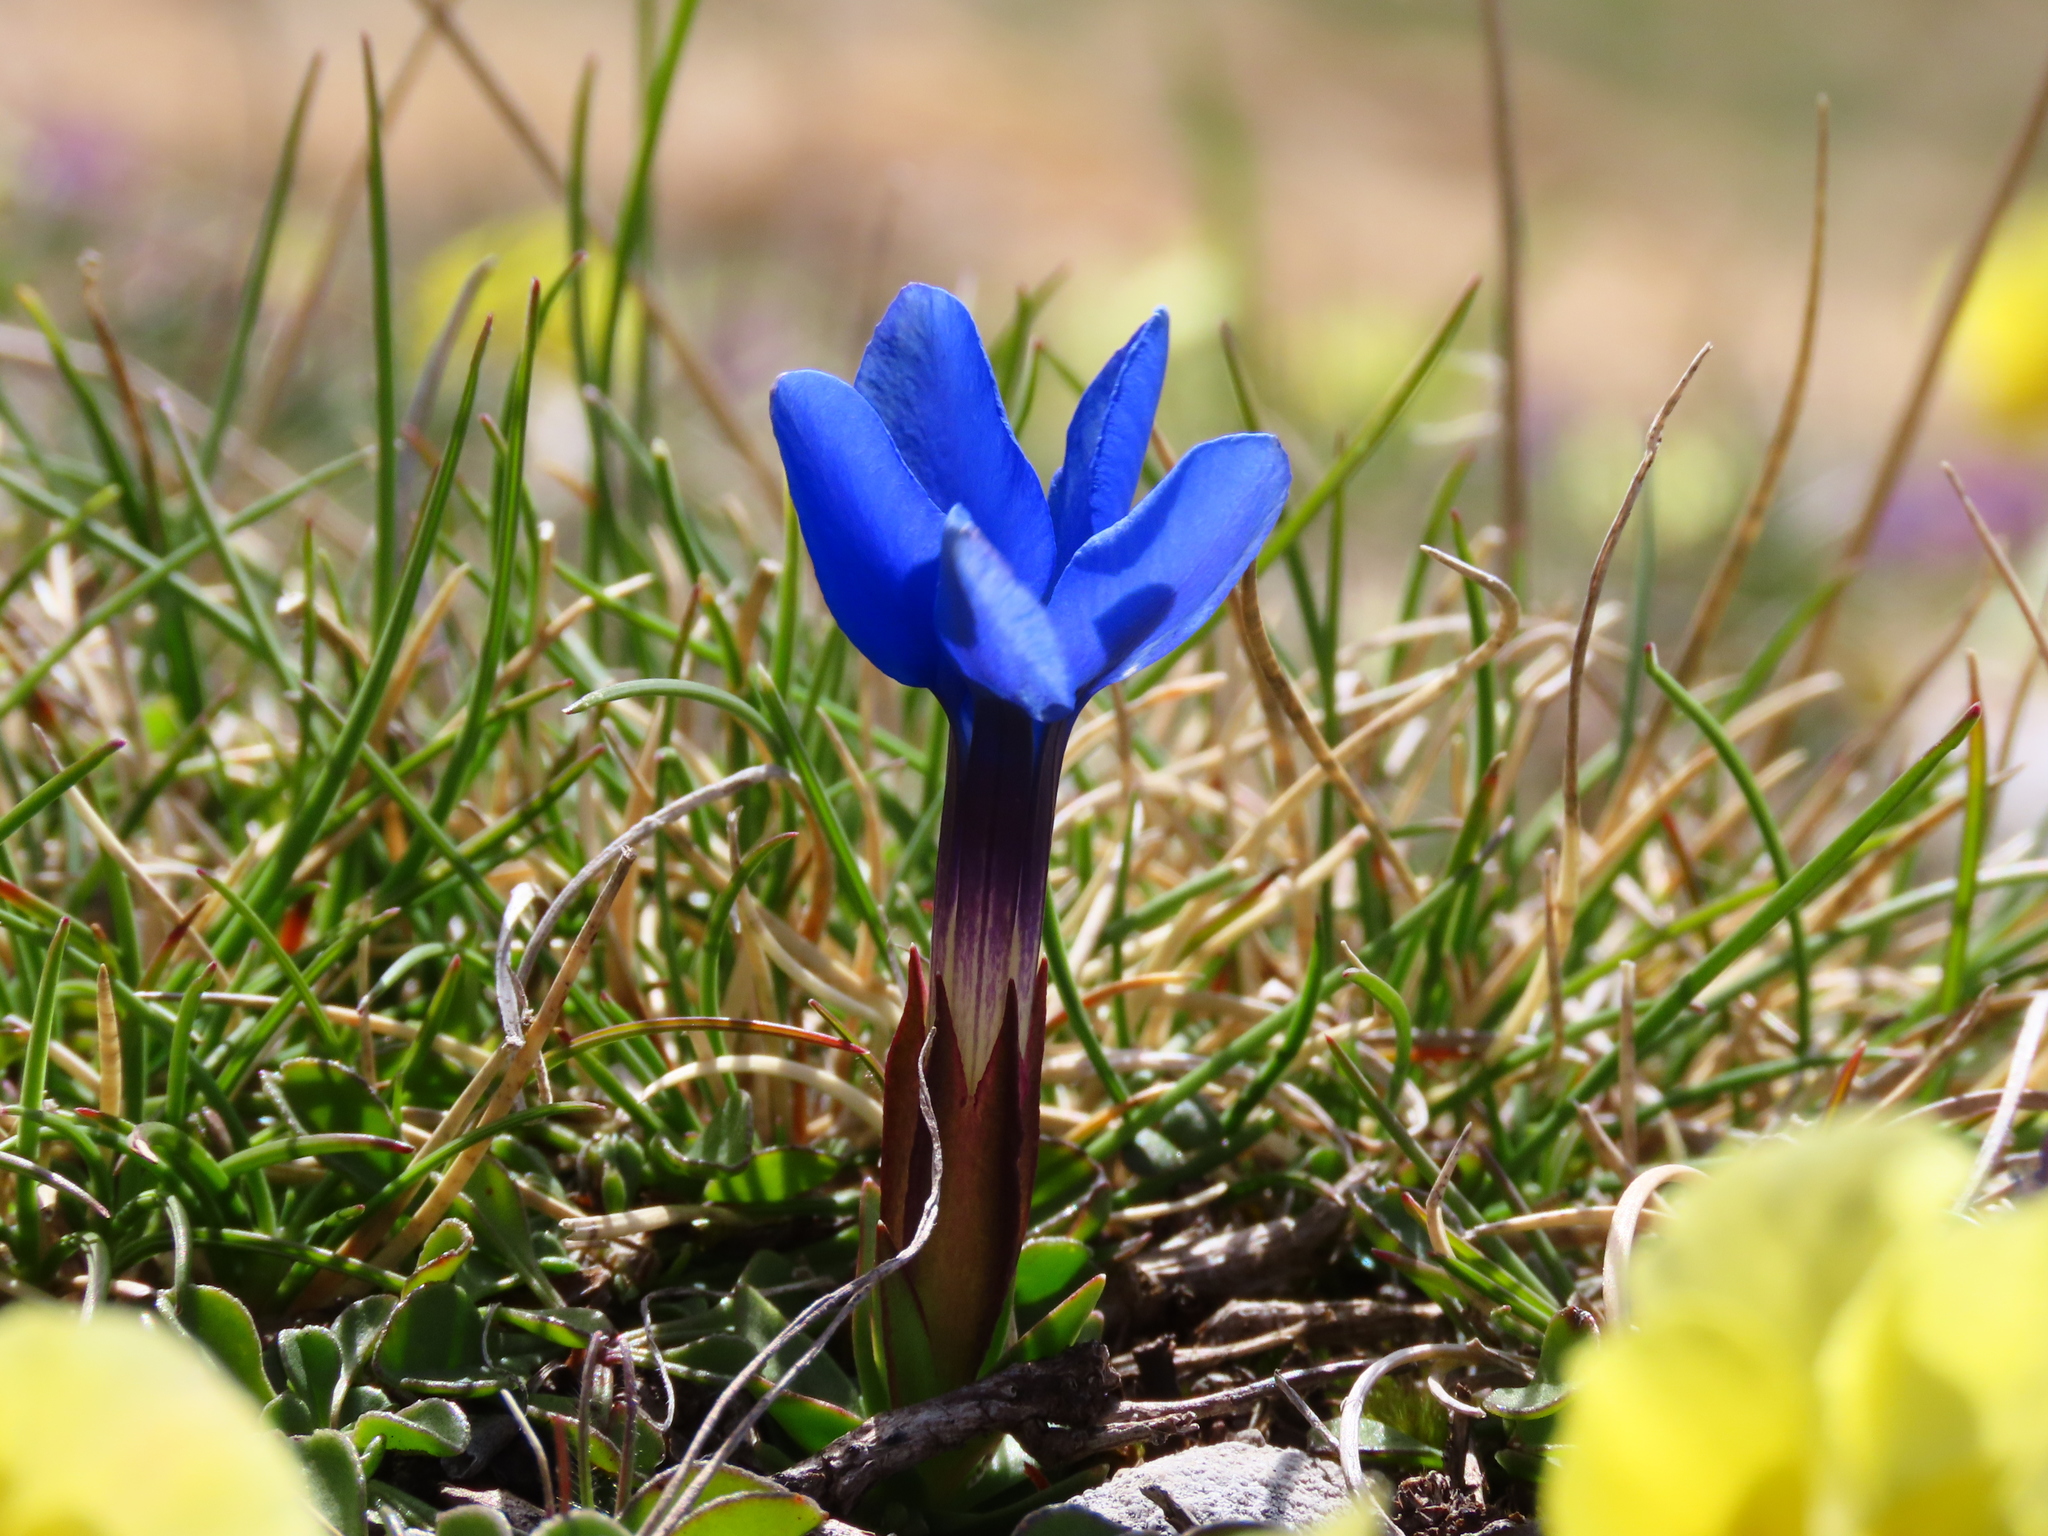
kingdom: Plantae
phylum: Tracheophyta
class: Magnoliopsida
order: Gentianales
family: Gentianaceae
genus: Gentiana
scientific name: Gentiana verna
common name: Spring gentian
